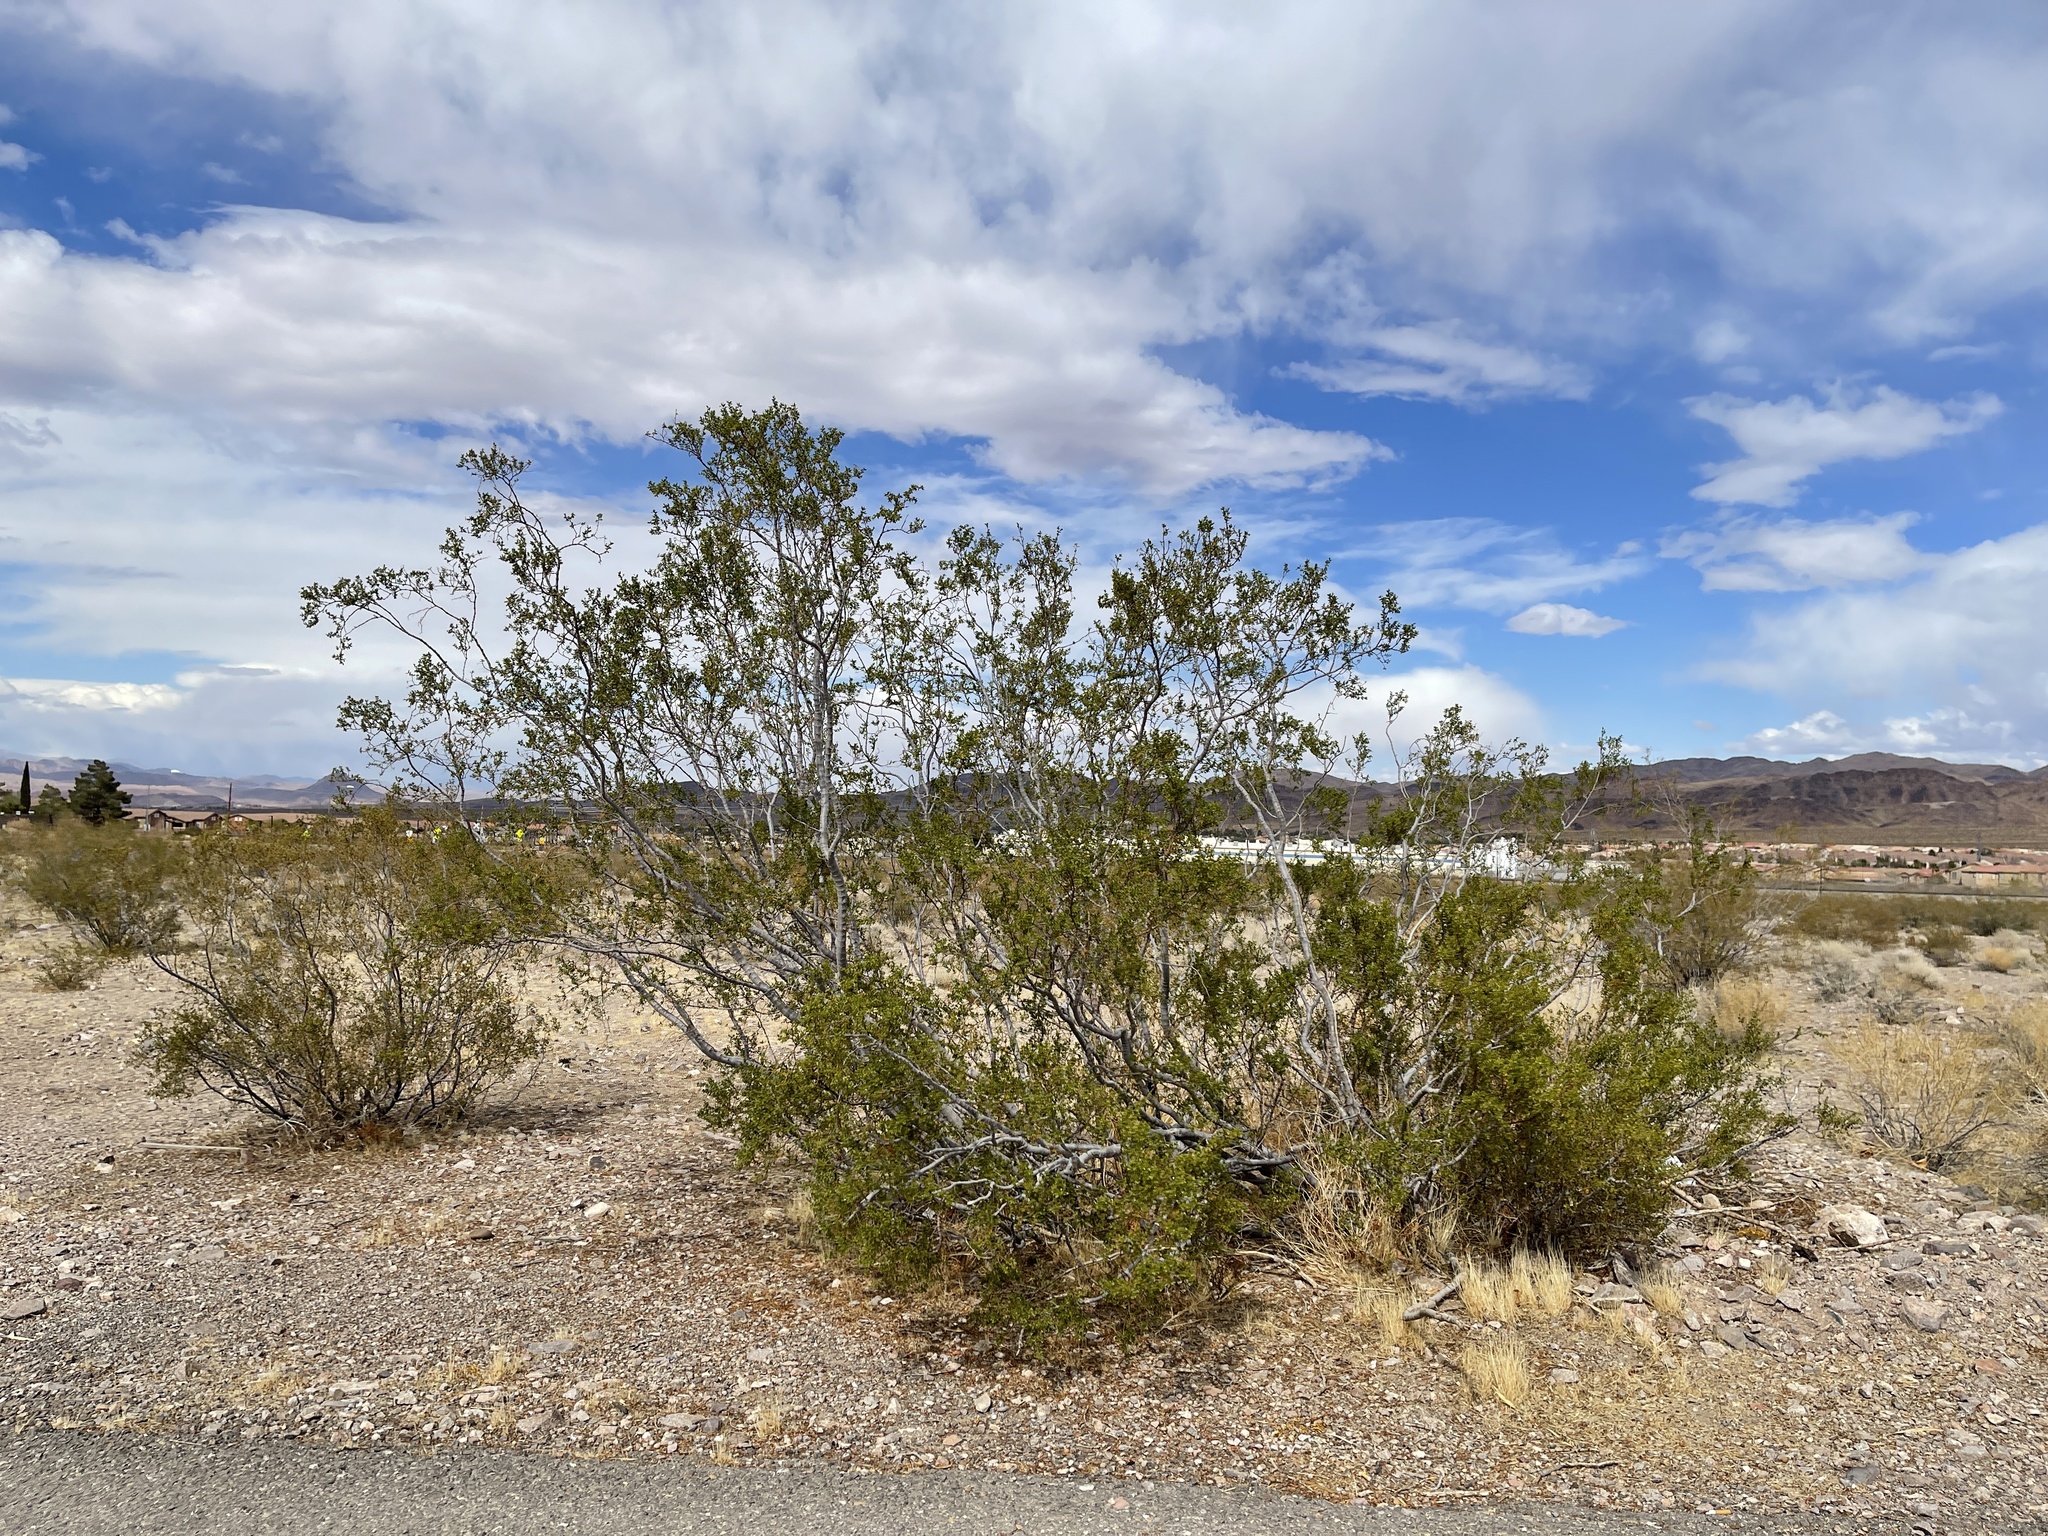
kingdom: Plantae
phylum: Tracheophyta
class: Magnoliopsida
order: Zygophyllales
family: Zygophyllaceae
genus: Larrea
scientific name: Larrea tridentata
